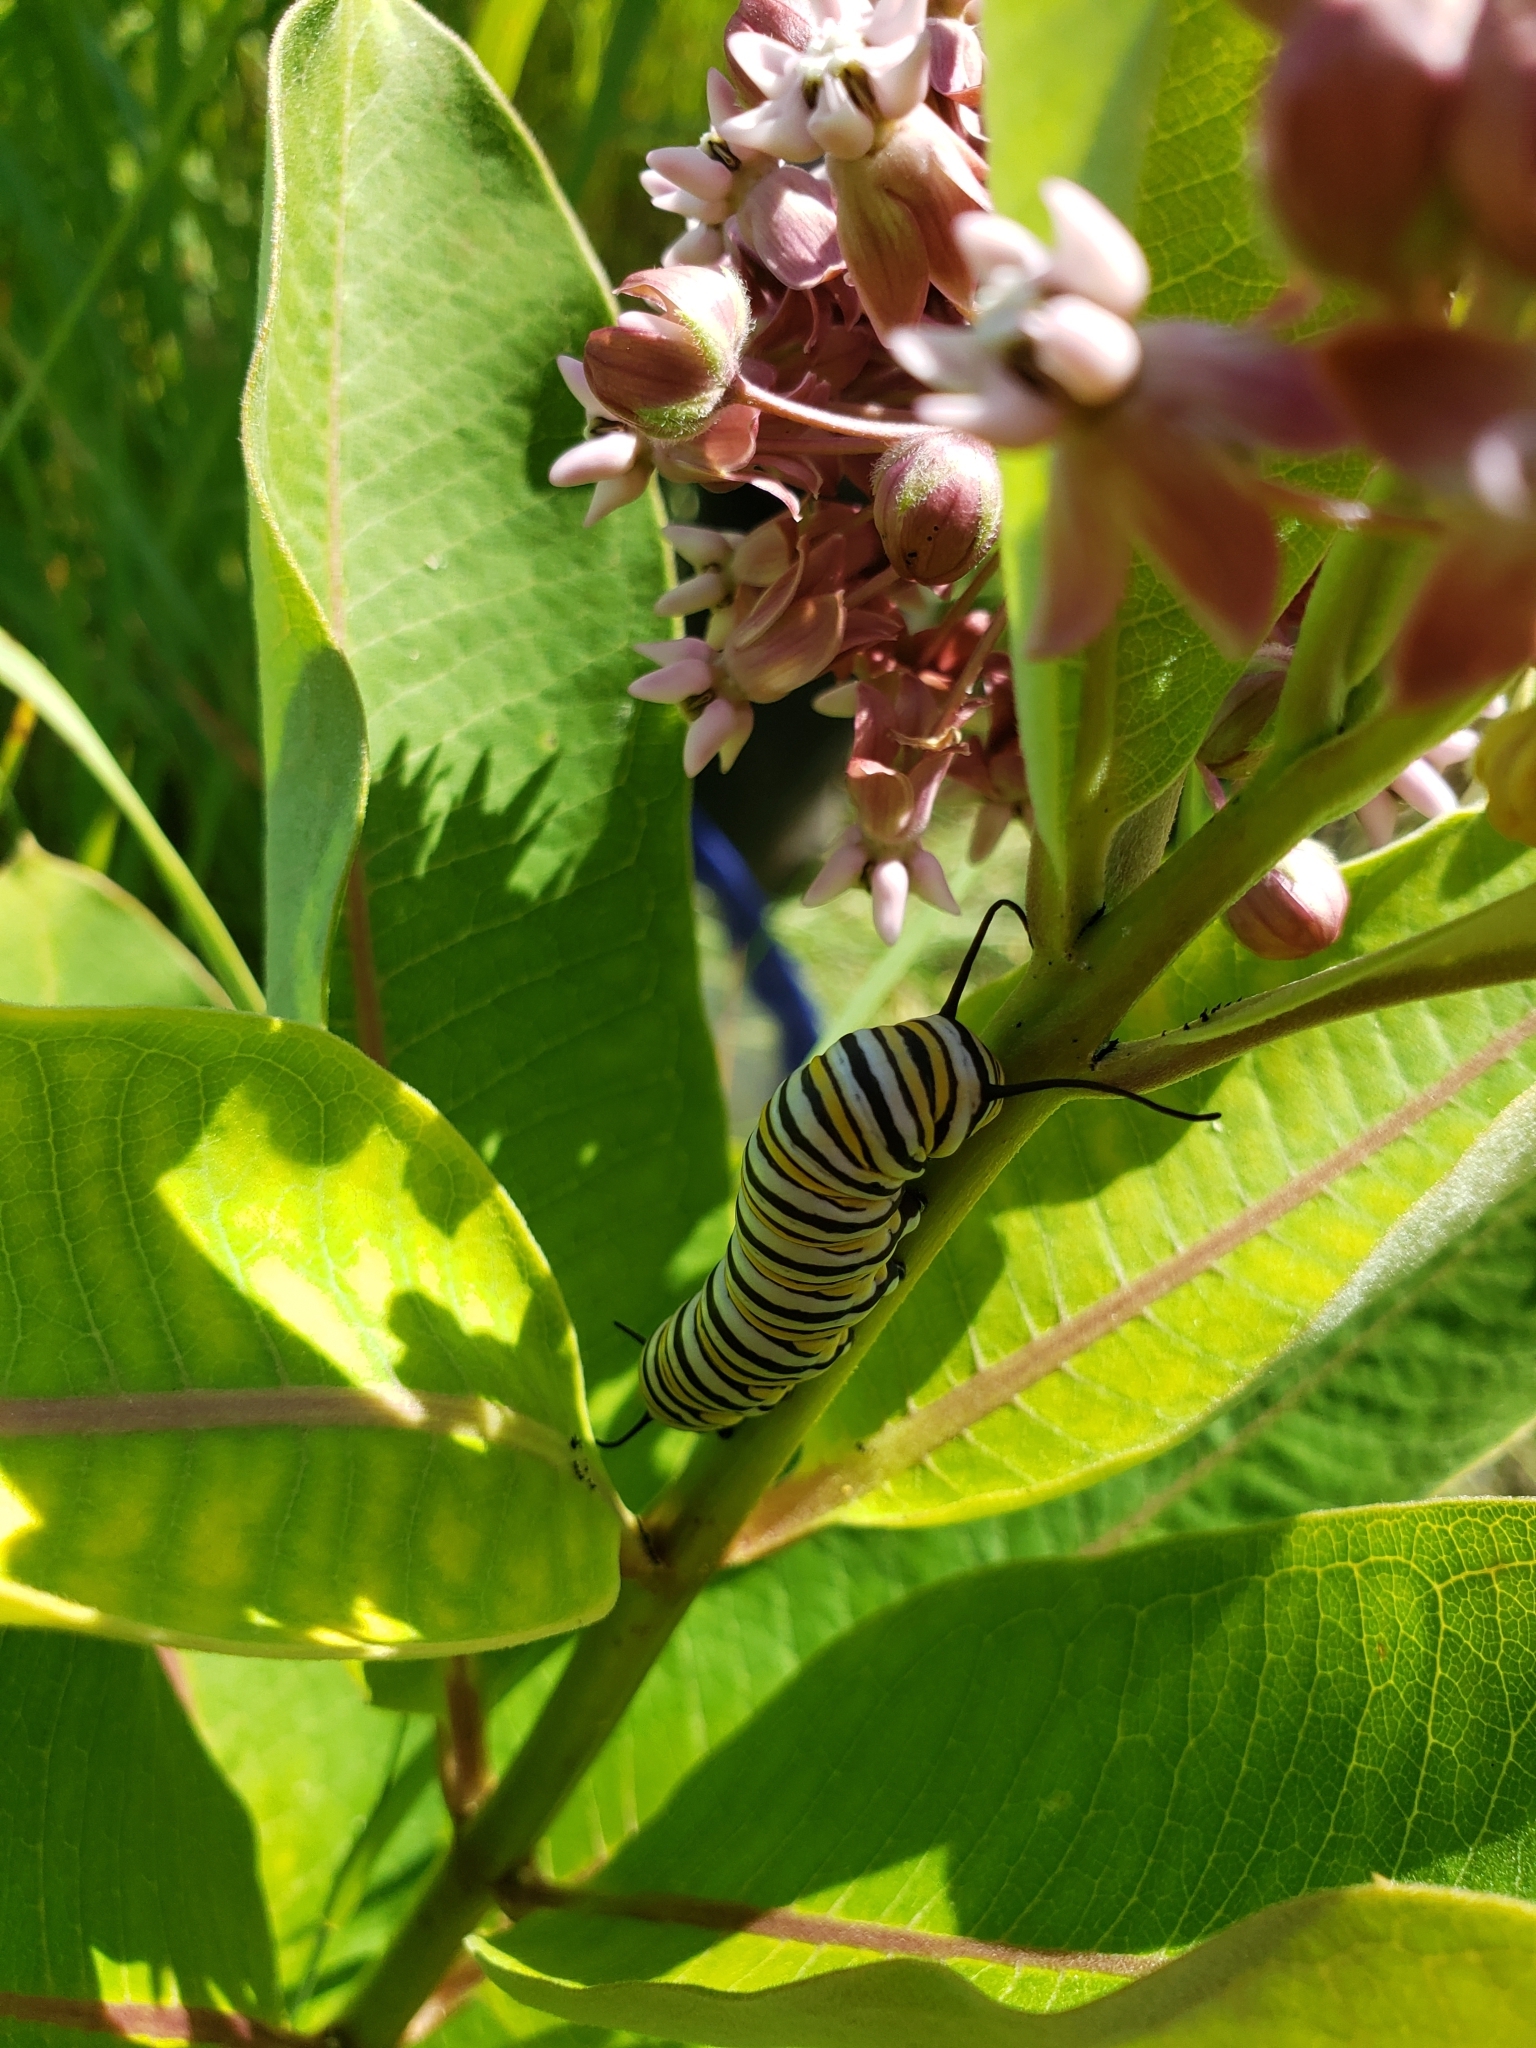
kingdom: Animalia
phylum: Arthropoda
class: Insecta
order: Lepidoptera
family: Nymphalidae
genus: Danaus
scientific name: Danaus plexippus
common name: Monarch
